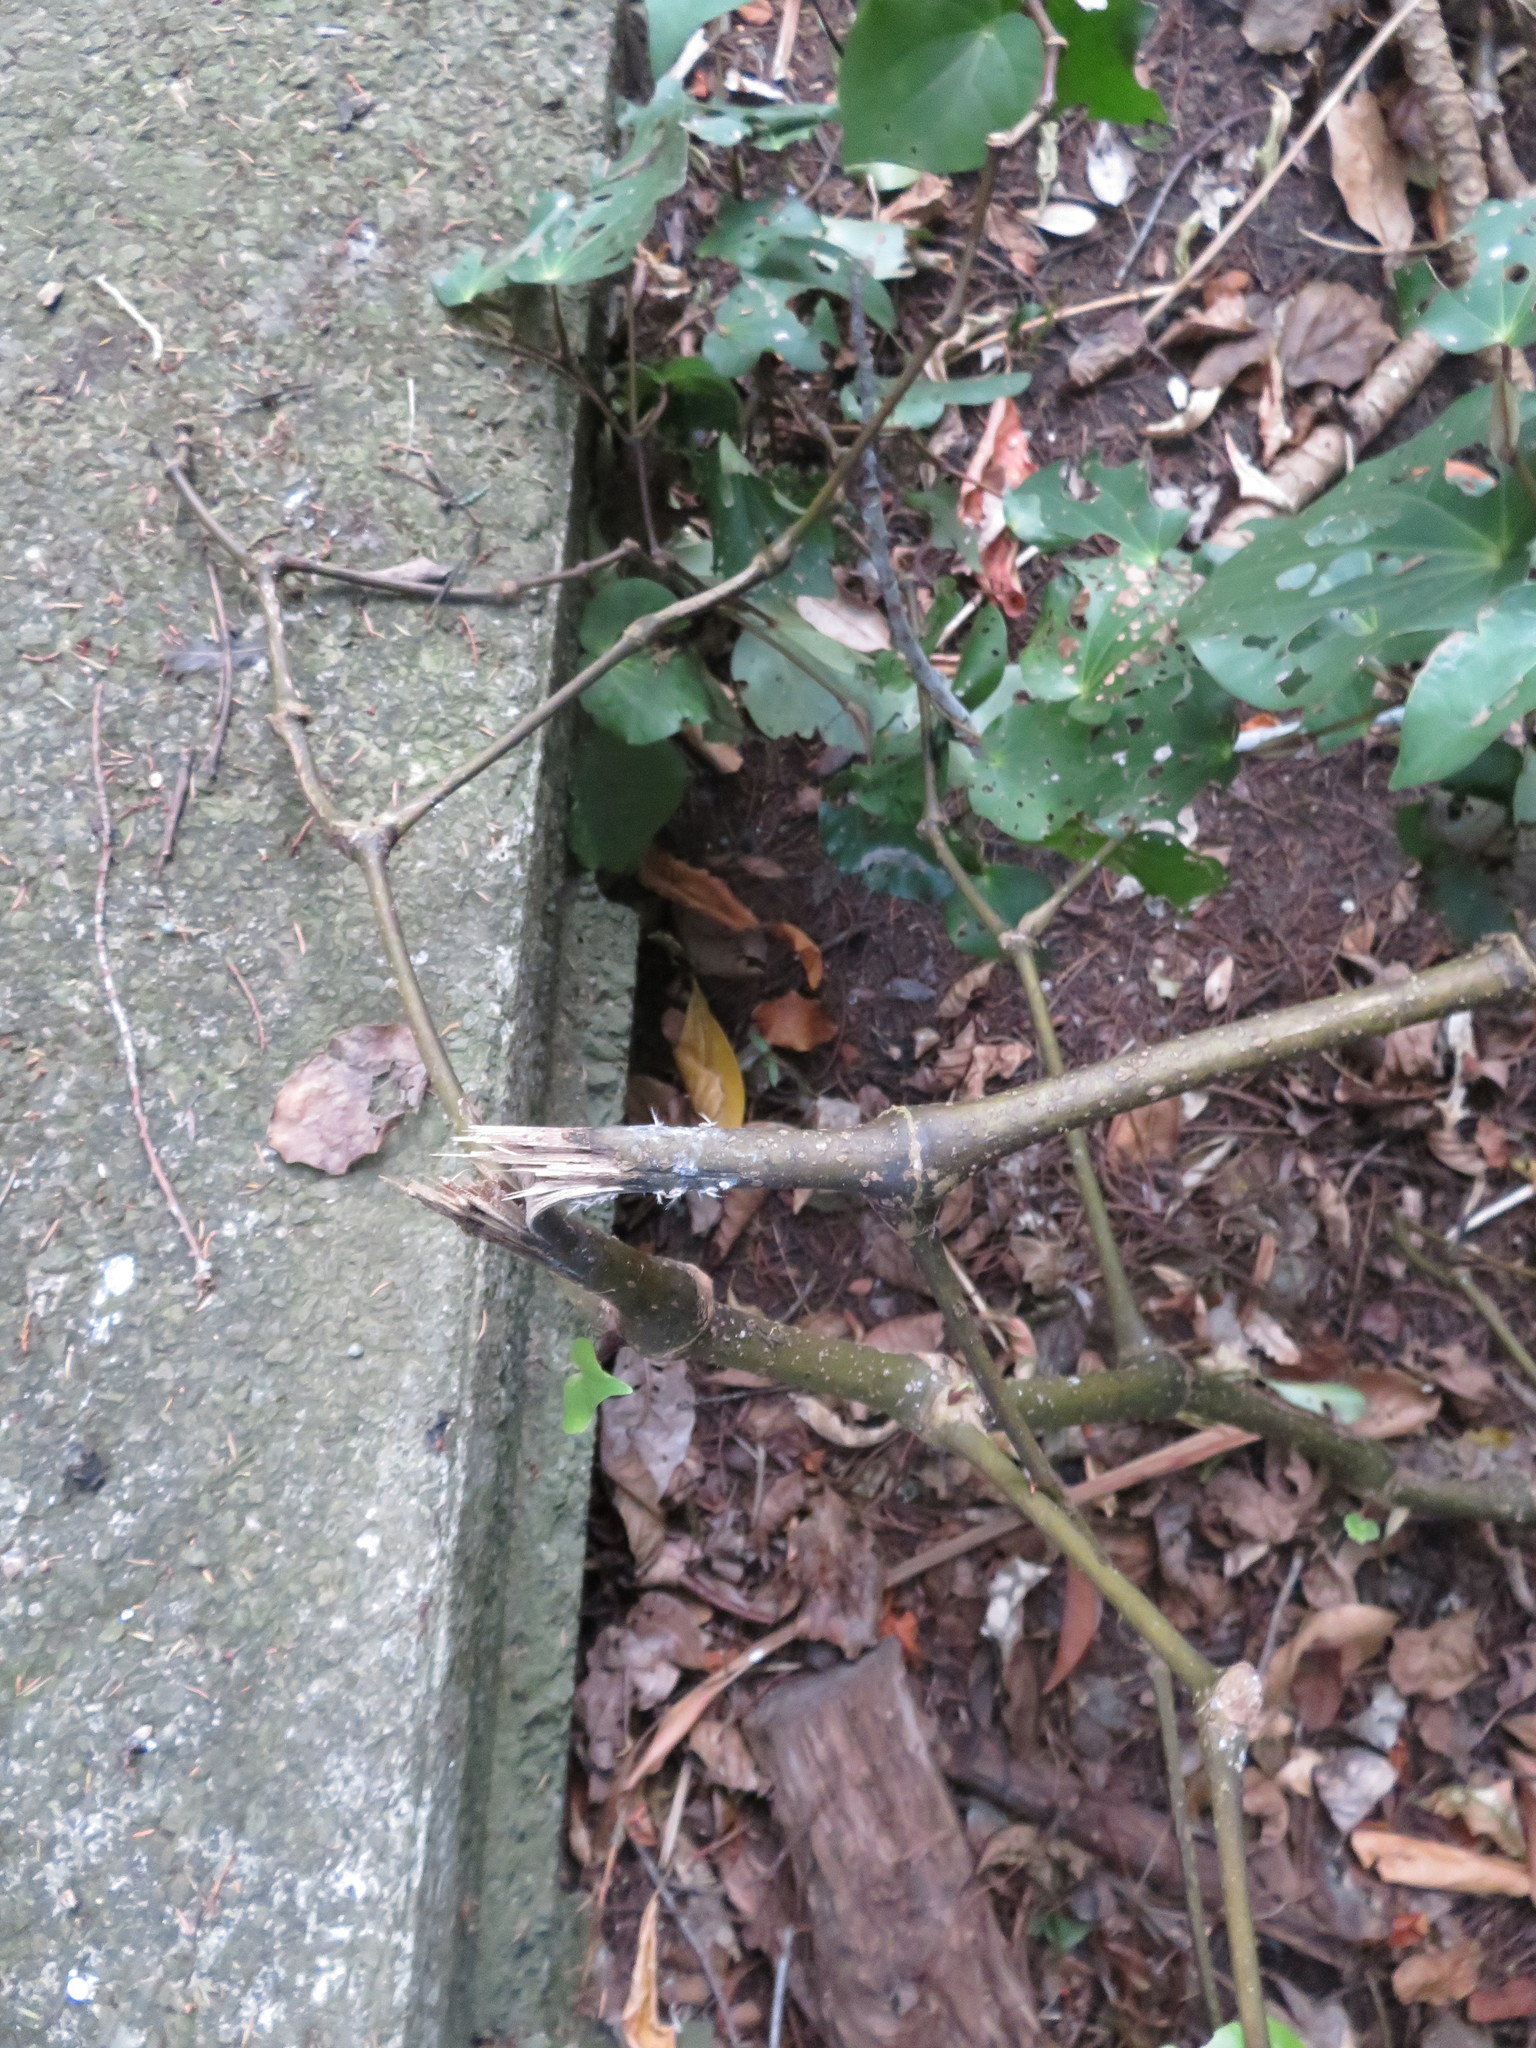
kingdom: Plantae
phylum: Tracheophyta
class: Magnoliopsida
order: Piperales
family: Piperaceae
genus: Macropiper
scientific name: Macropiper excelsum
